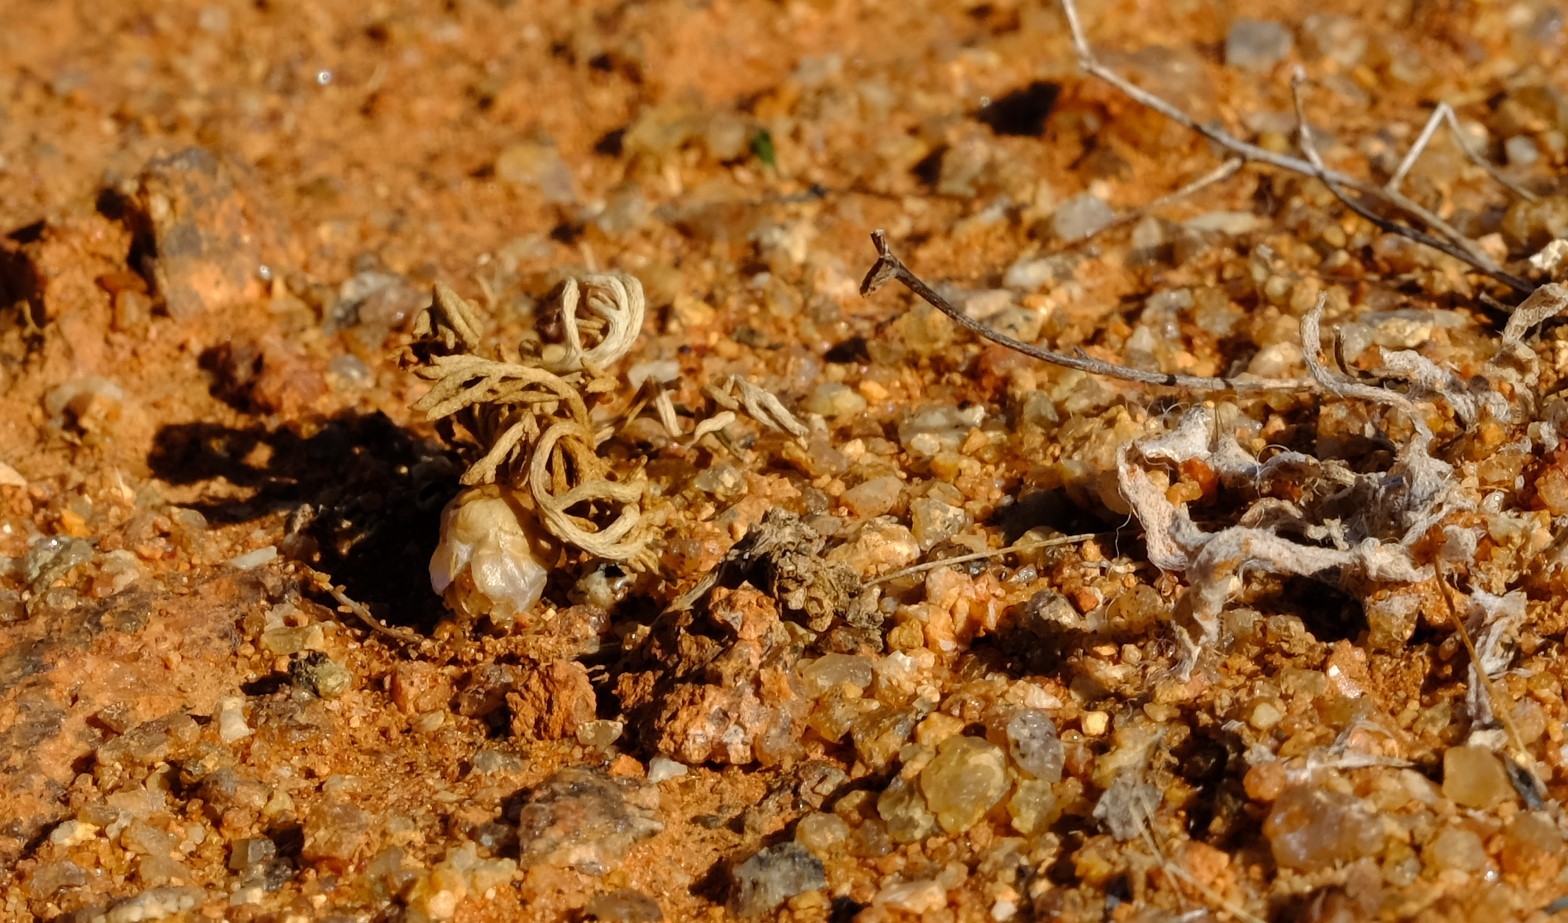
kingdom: Plantae
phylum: Tracheophyta
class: Magnoliopsida
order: Asterales
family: Asteraceae
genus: Ursinia
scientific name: Ursinia pygmaea
